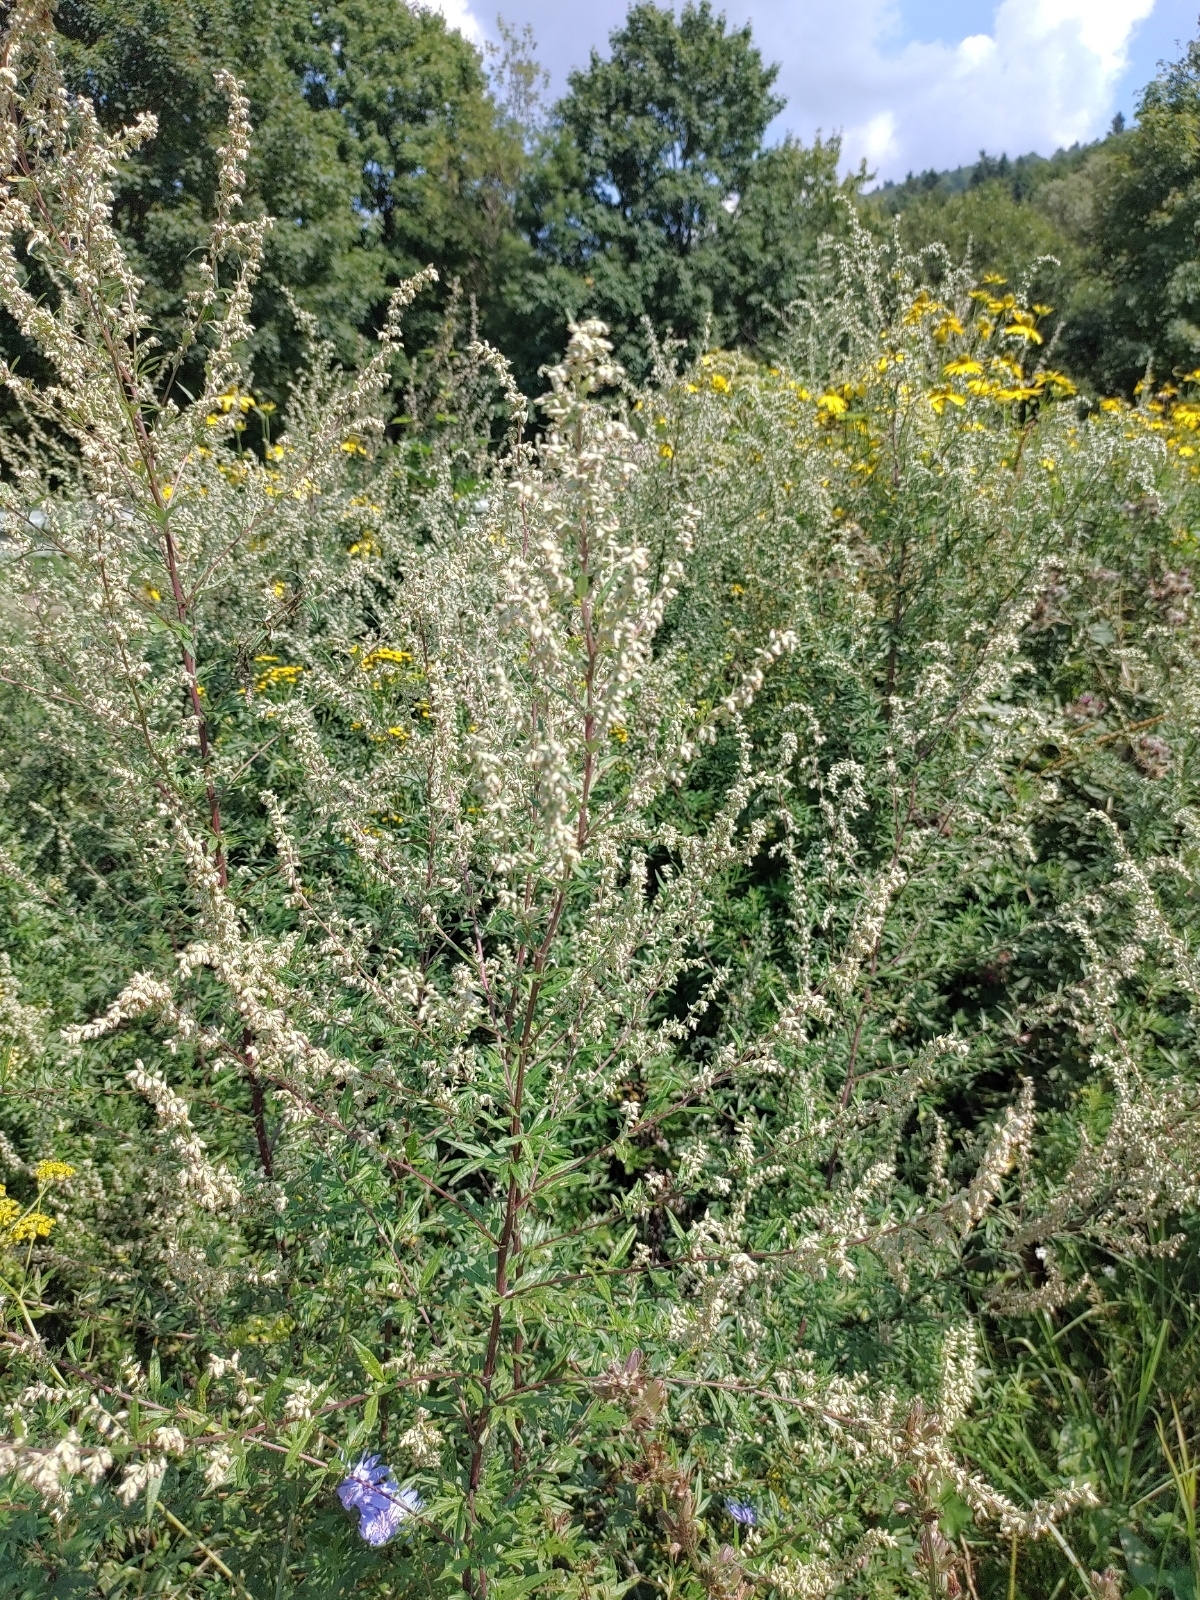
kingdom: Plantae
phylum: Tracheophyta
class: Magnoliopsida
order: Asterales
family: Asteraceae
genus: Artemisia
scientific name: Artemisia vulgaris
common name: Mugwort
